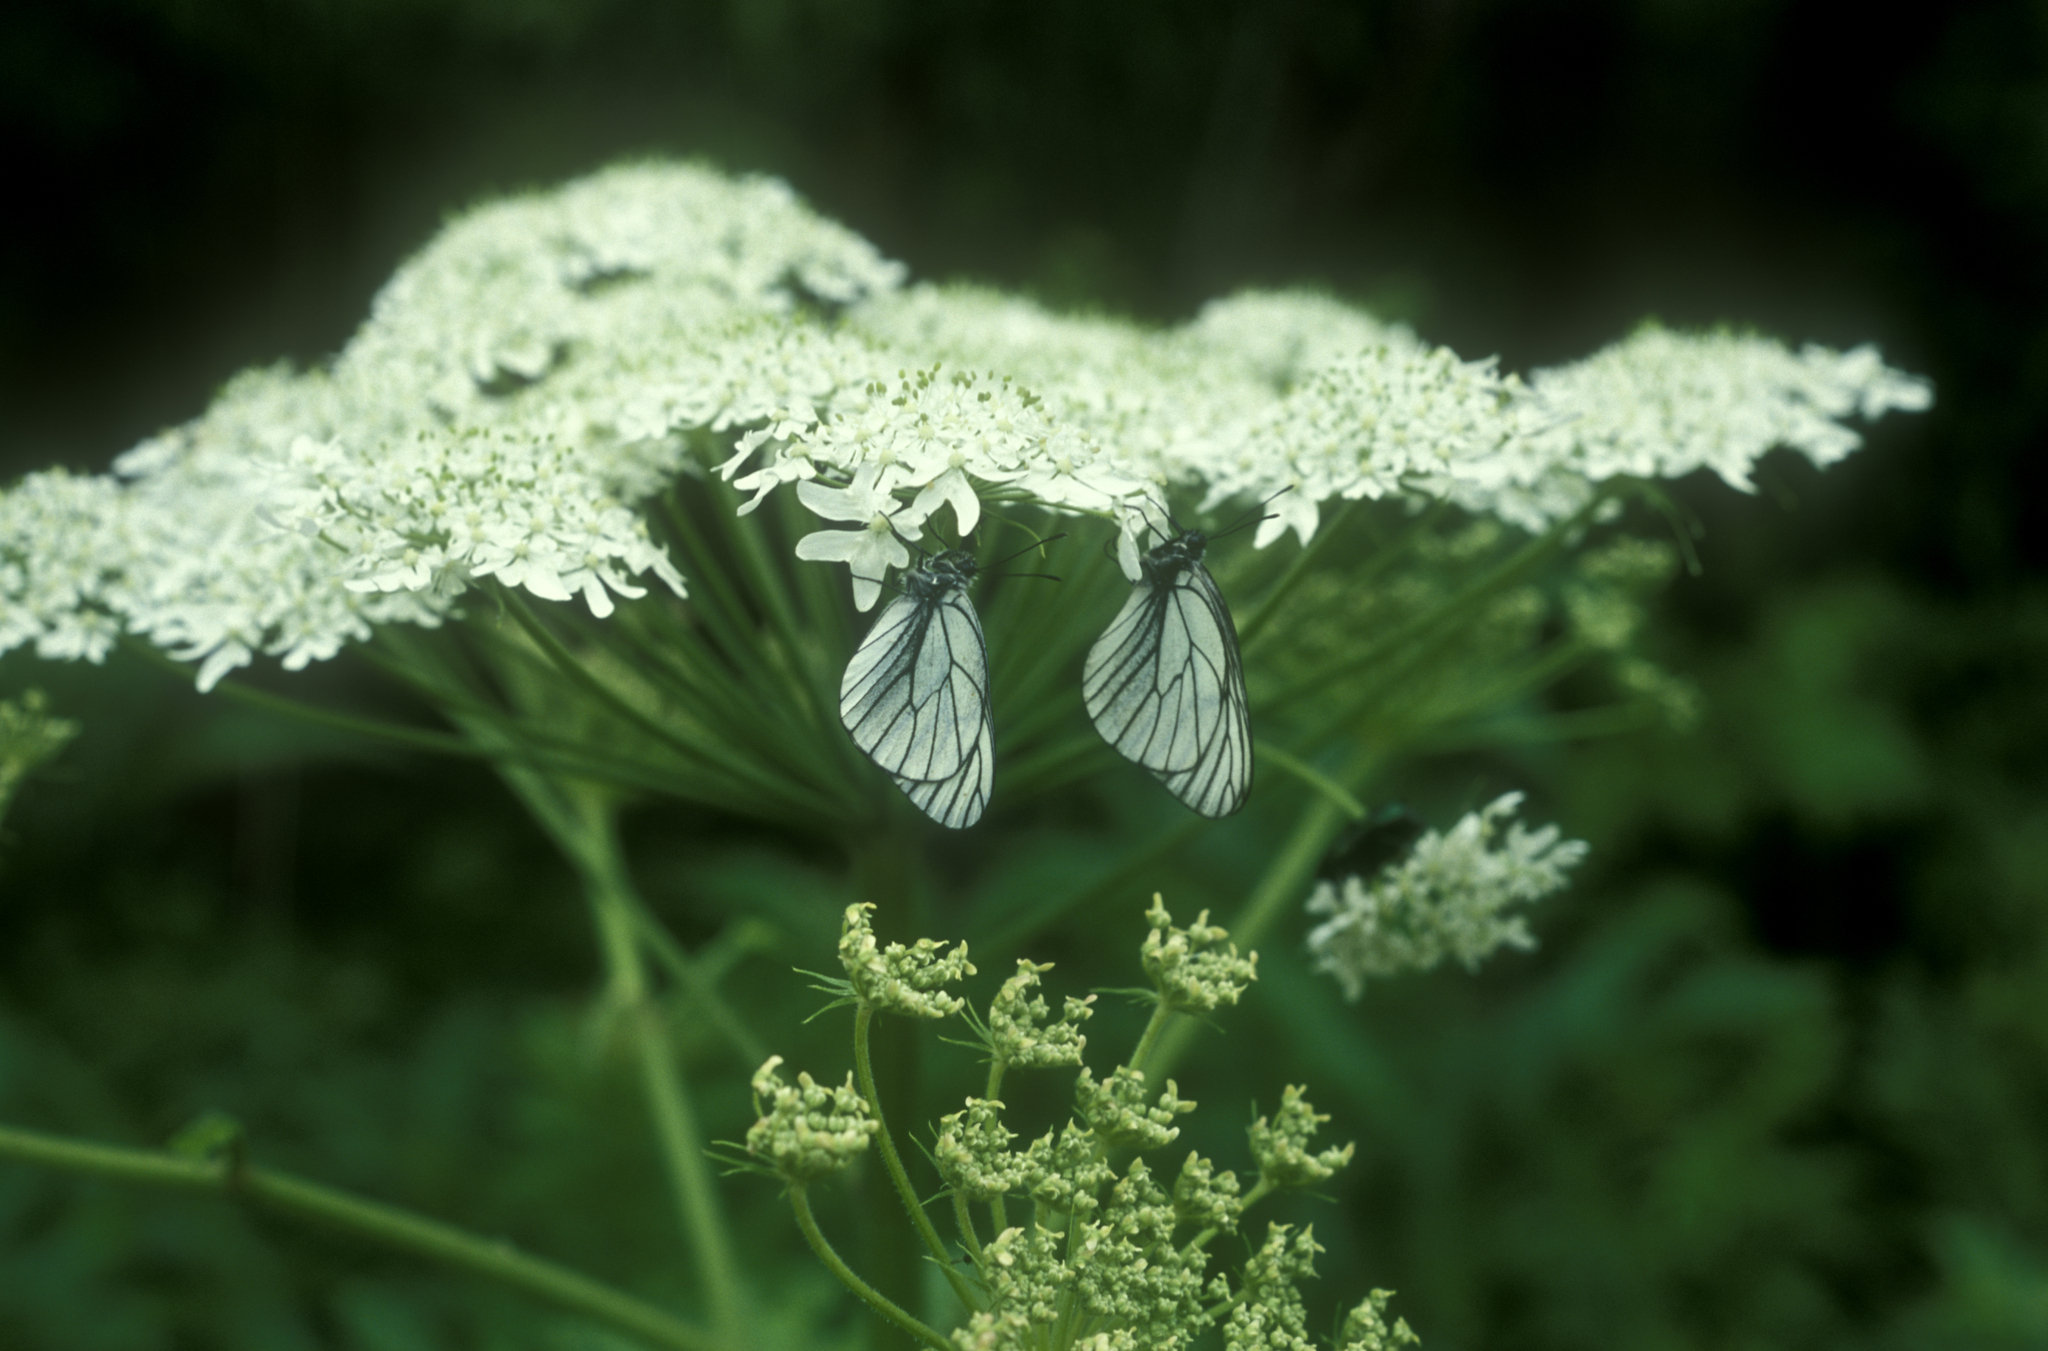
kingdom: Animalia
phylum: Arthropoda
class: Insecta
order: Lepidoptera
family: Pieridae
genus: Aporia
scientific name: Aporia crataegi
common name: Black-veined white
